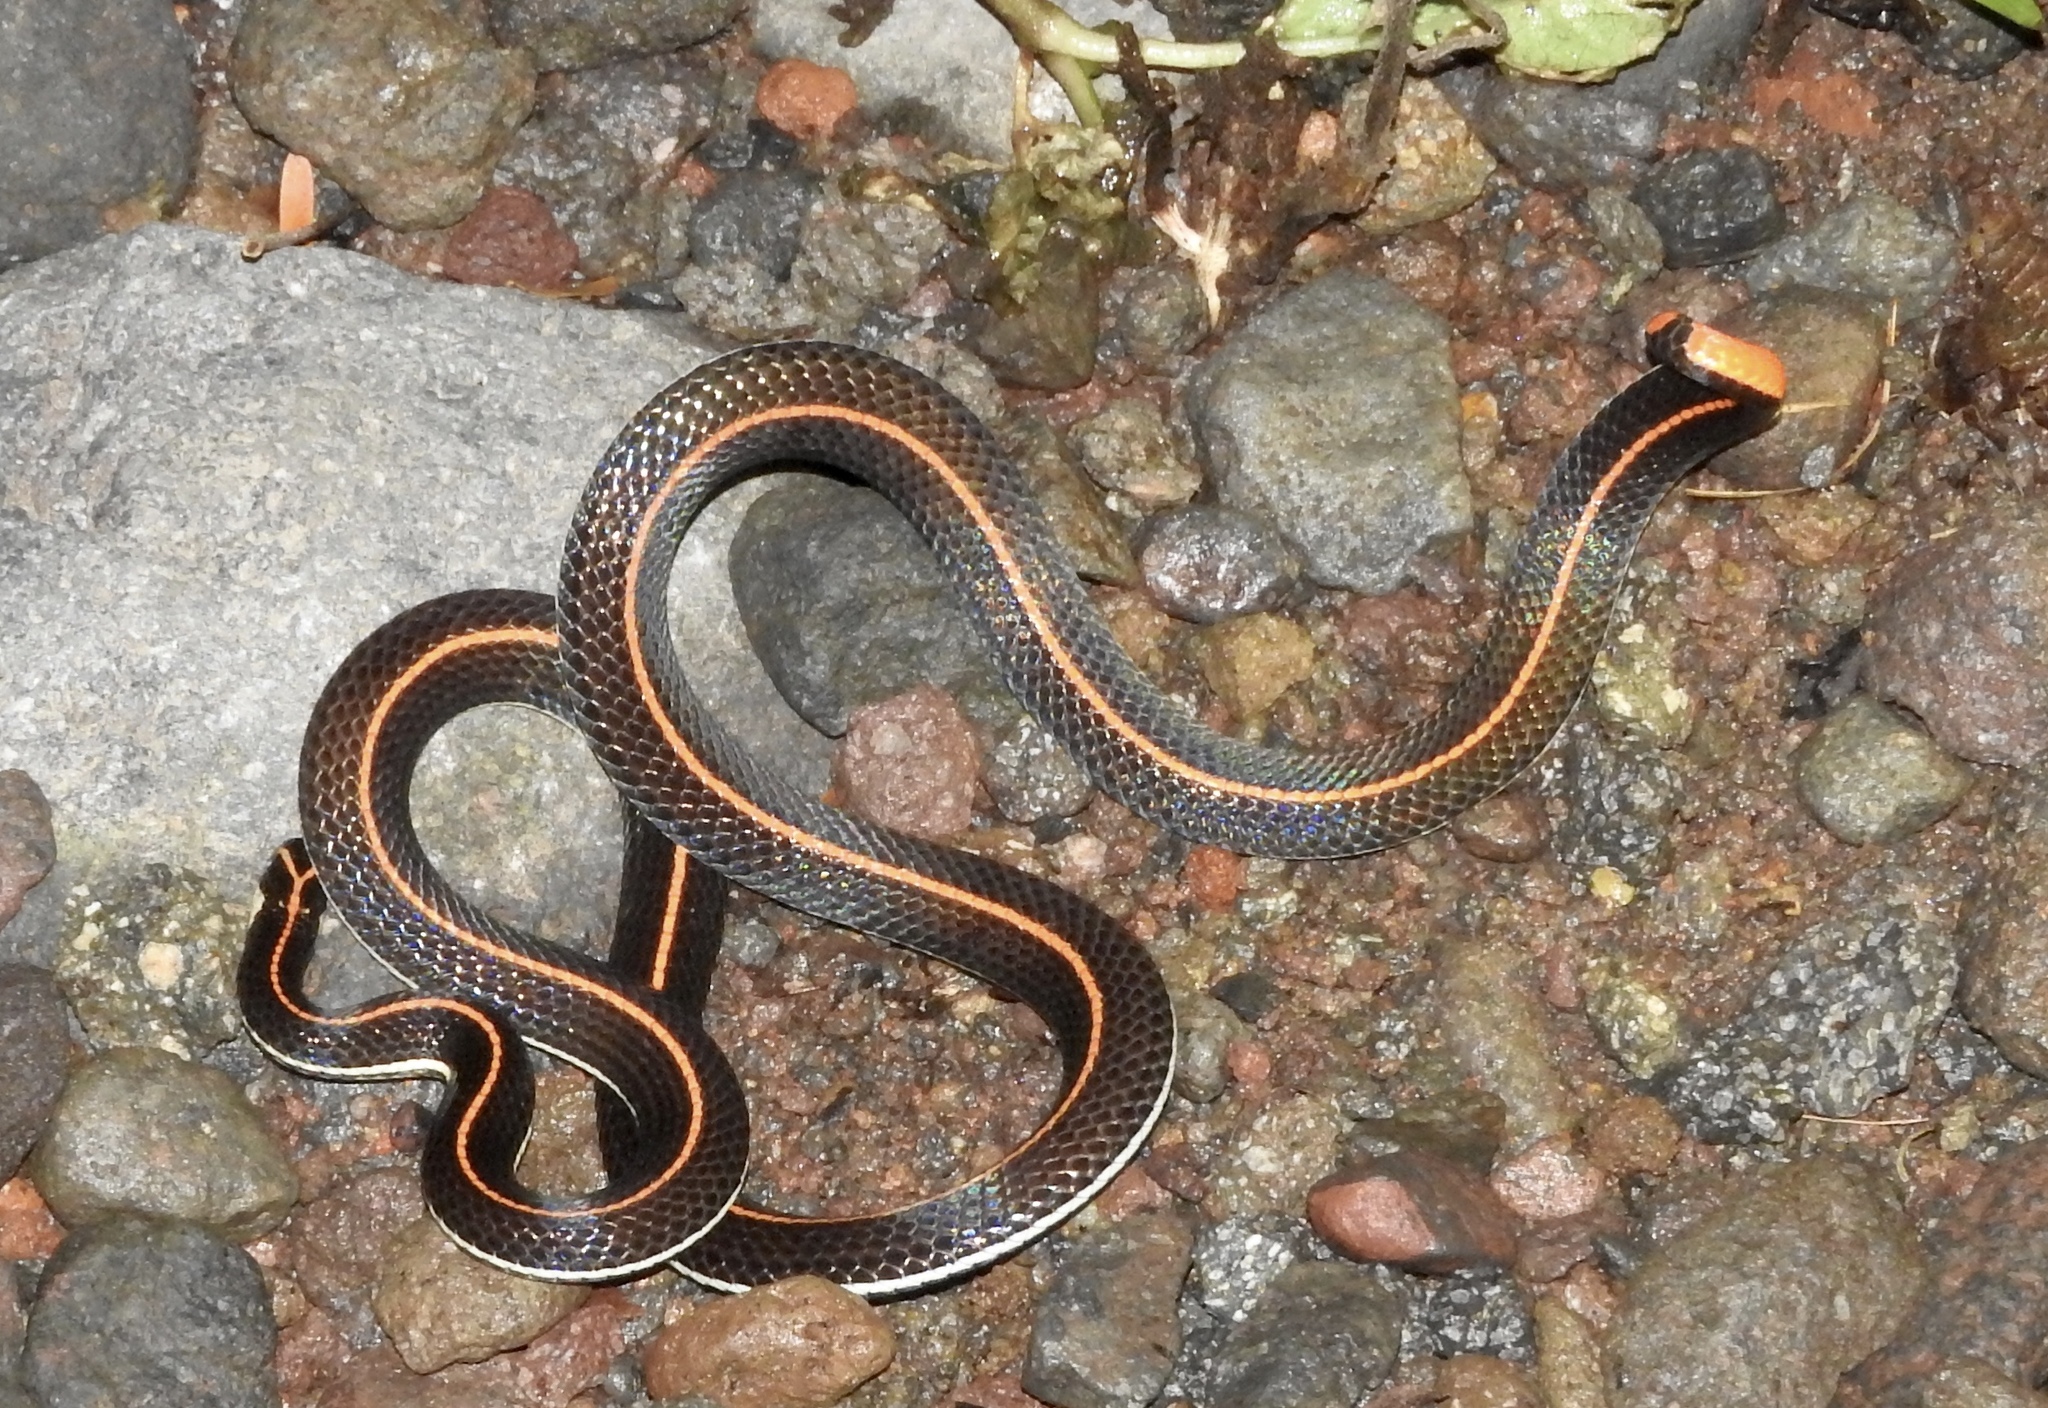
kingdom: Animalia
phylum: Chordata
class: Squamata
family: Elapidae
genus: Calliophis
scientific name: Calliophis intestinalis
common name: Striped coral snake
